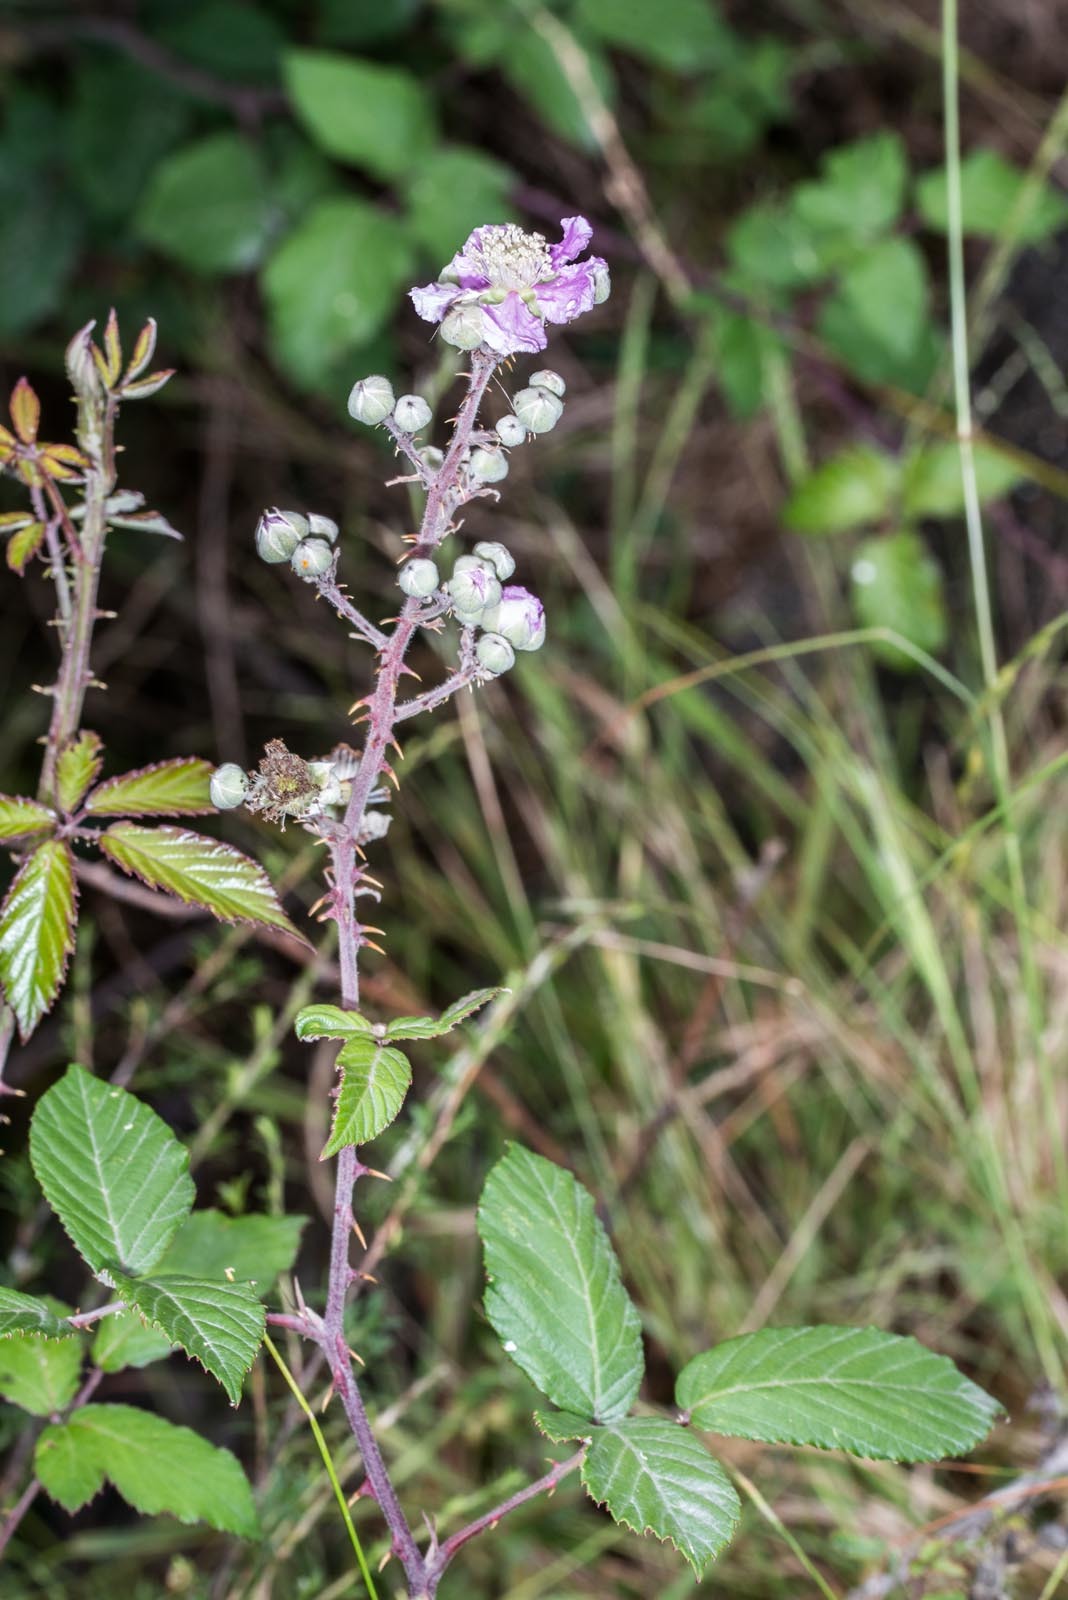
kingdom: Plantae
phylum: Tracheophyta
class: Magnoliopsida
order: Rosales
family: Rosaceae
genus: Rubus
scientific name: Rubus ulmifolius
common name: Elmleaf blackberry
